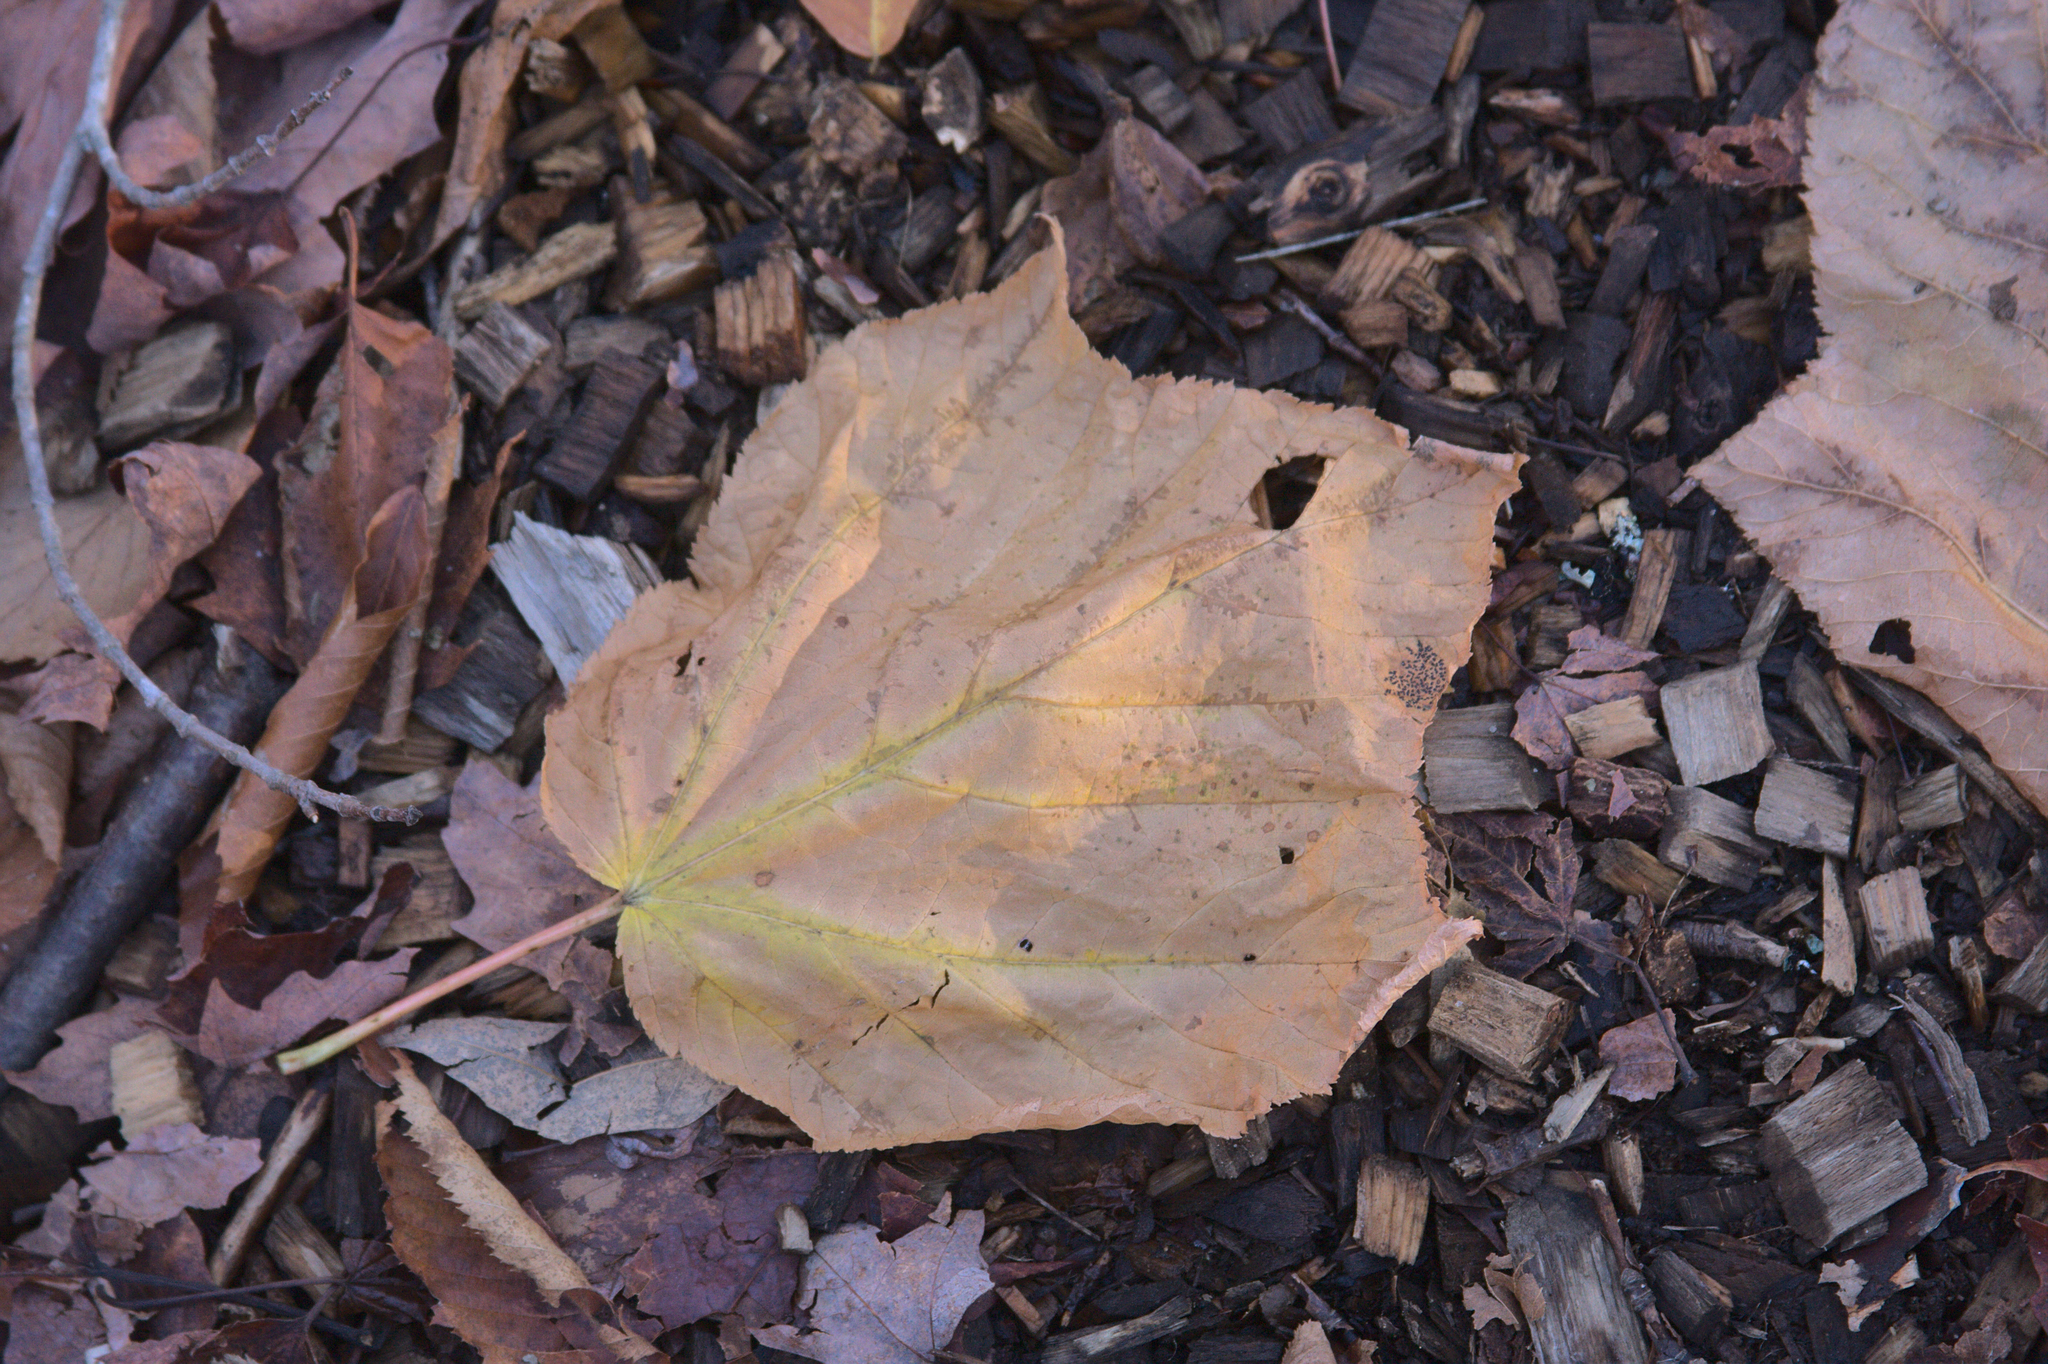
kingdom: Plantae
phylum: Tracheophyta
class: Magnoliopsida
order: Sapindales
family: Sapindaceae
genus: Acer
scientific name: Acer pensylvanicum
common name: Moosewood
